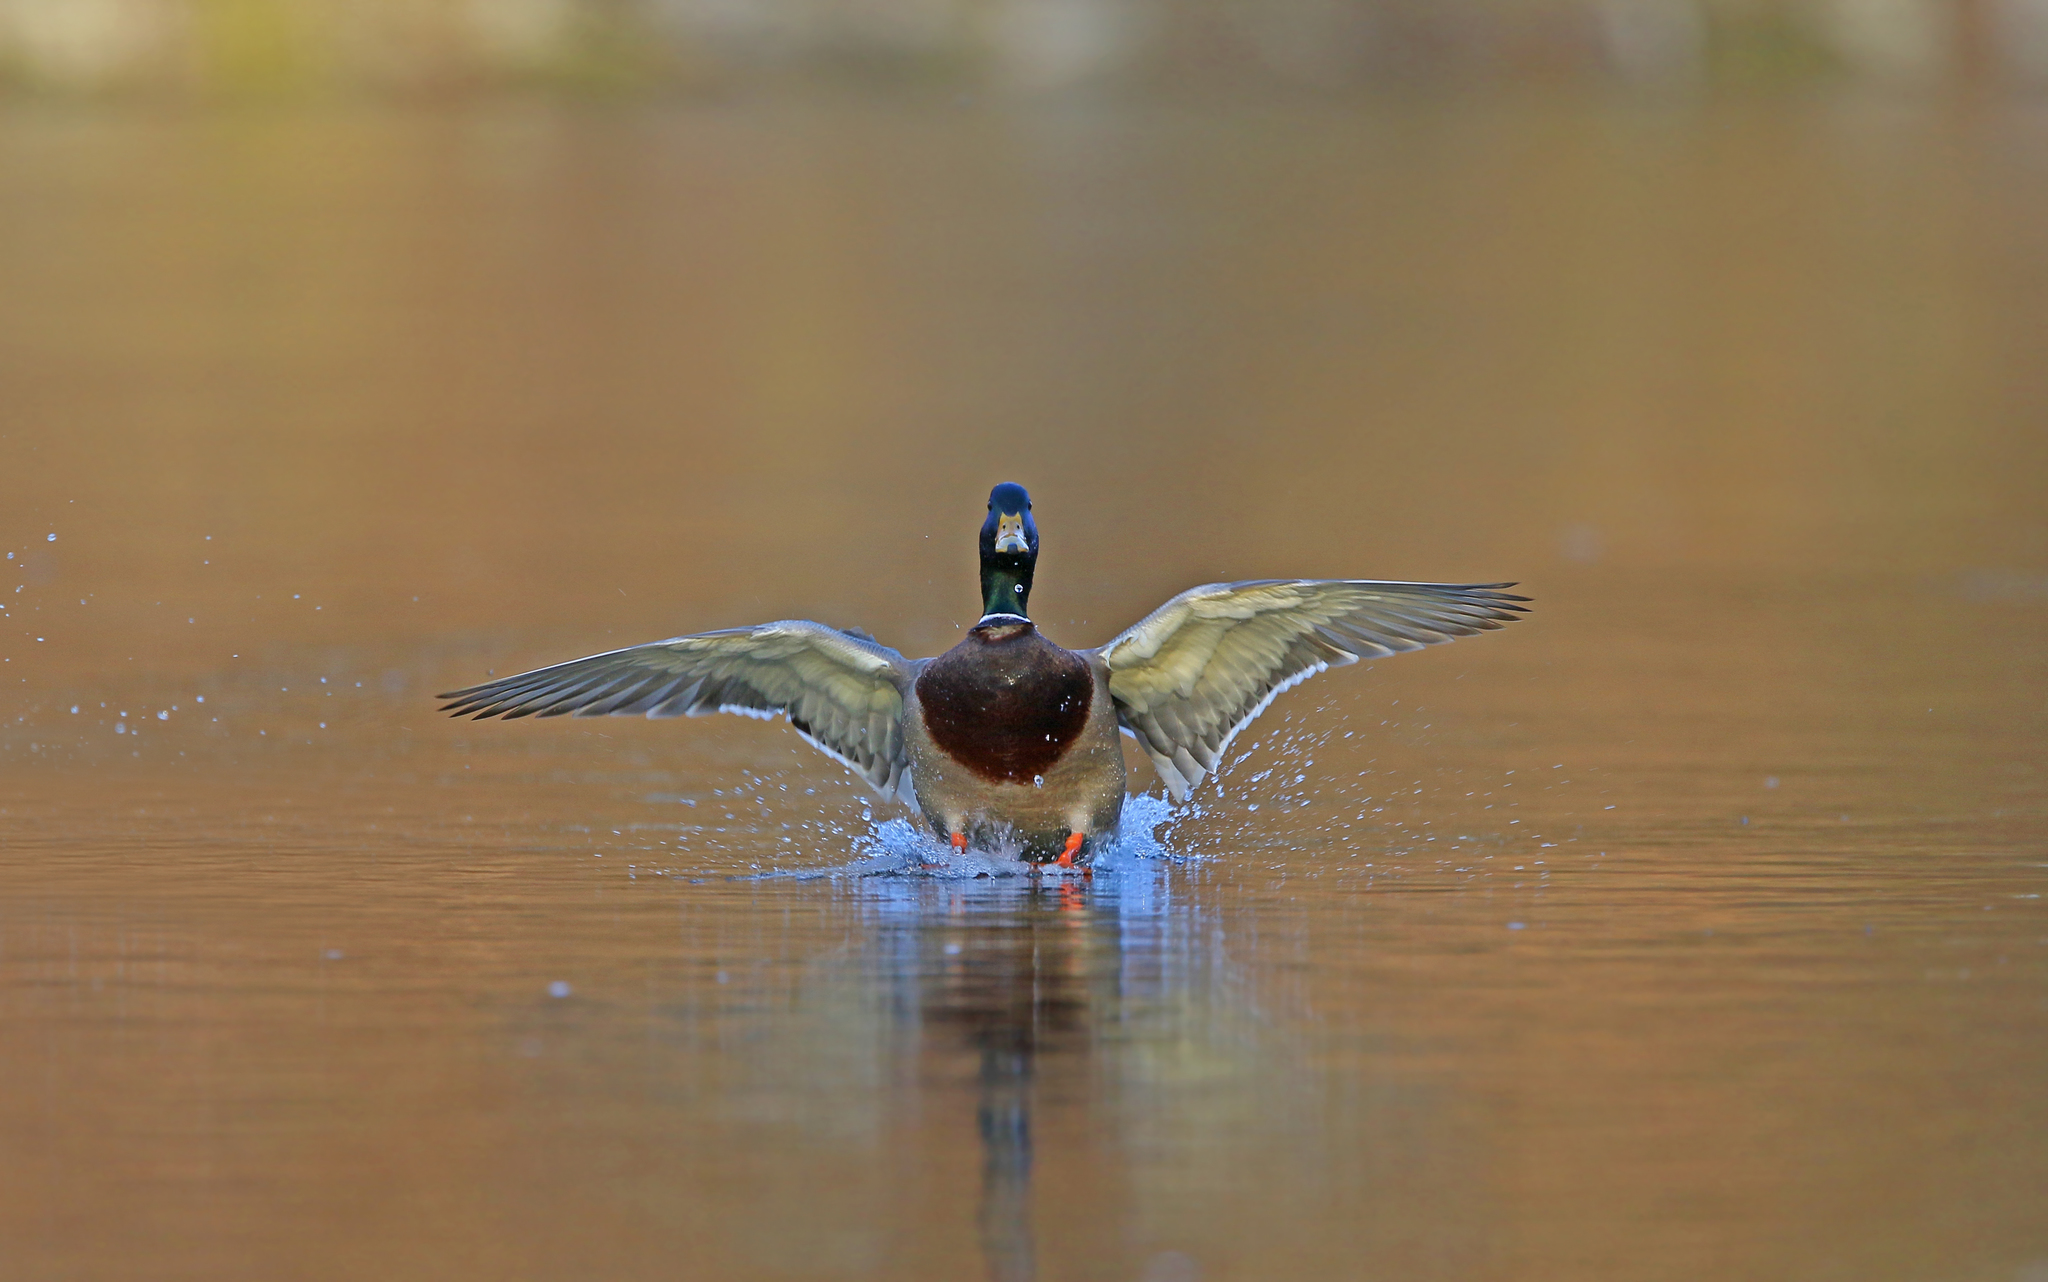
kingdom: Animalia
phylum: Chordata
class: Aves
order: Anseriformes
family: Anatidae
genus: Anas
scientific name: Anas platyrhynchos
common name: Mallard
